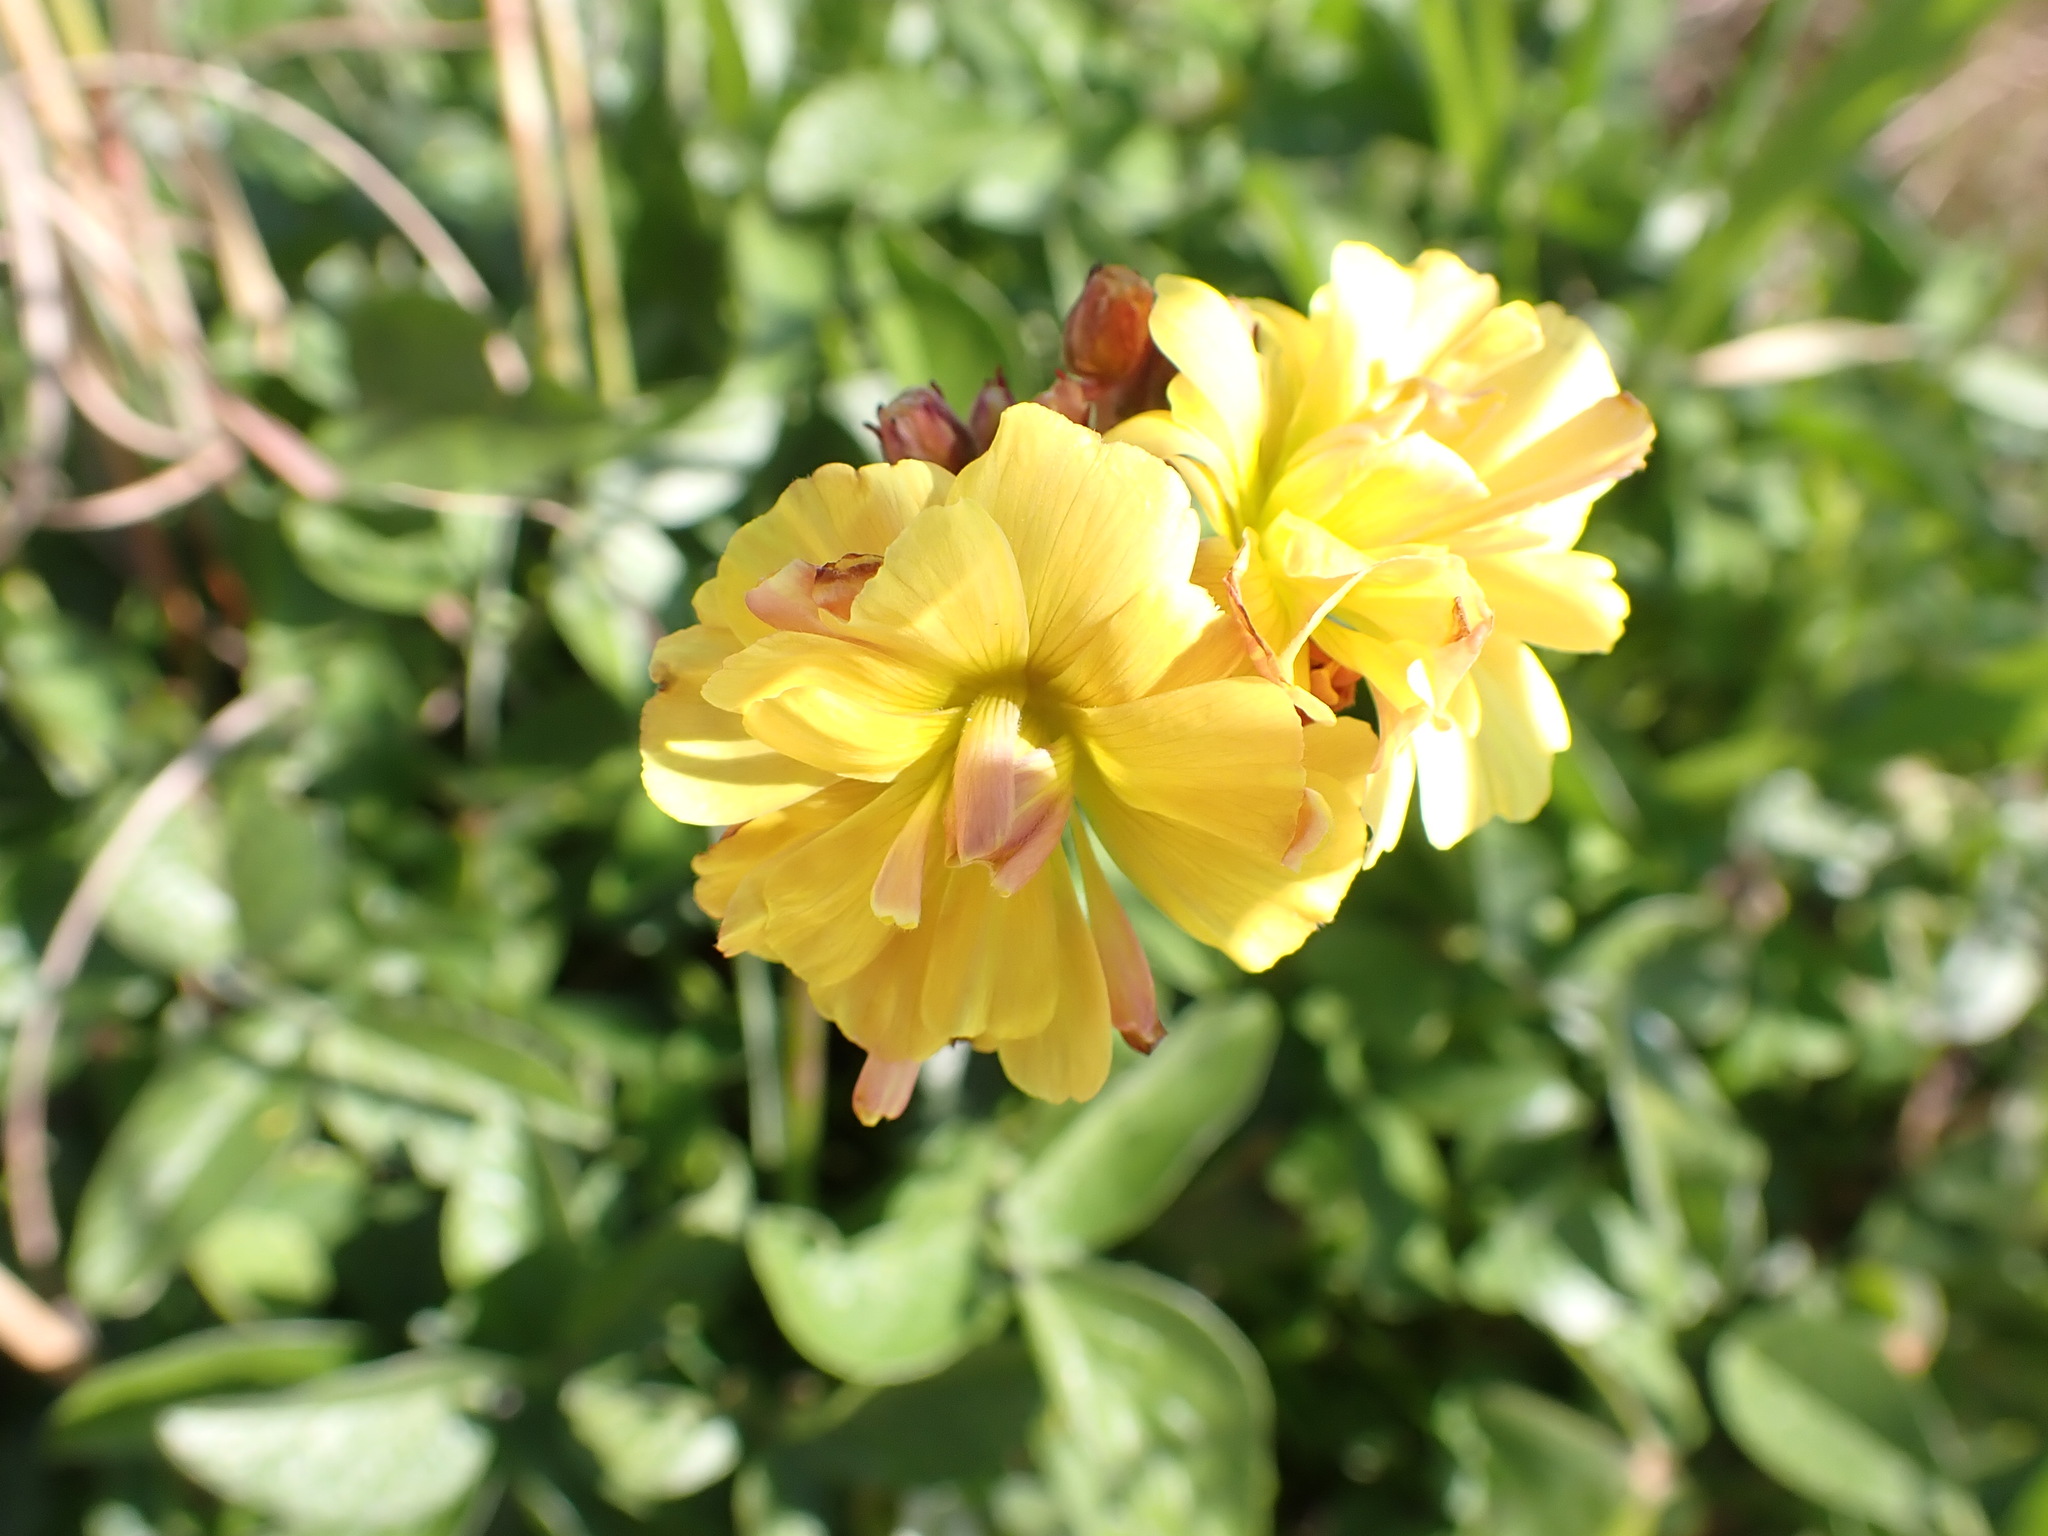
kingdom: Plantae
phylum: Tracheophyta
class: Magnoliopsida
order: Oxalidales
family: Oxalidaceae
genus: Oxalis
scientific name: Oxalis pes-caprae
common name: Bermuda-buttercup
